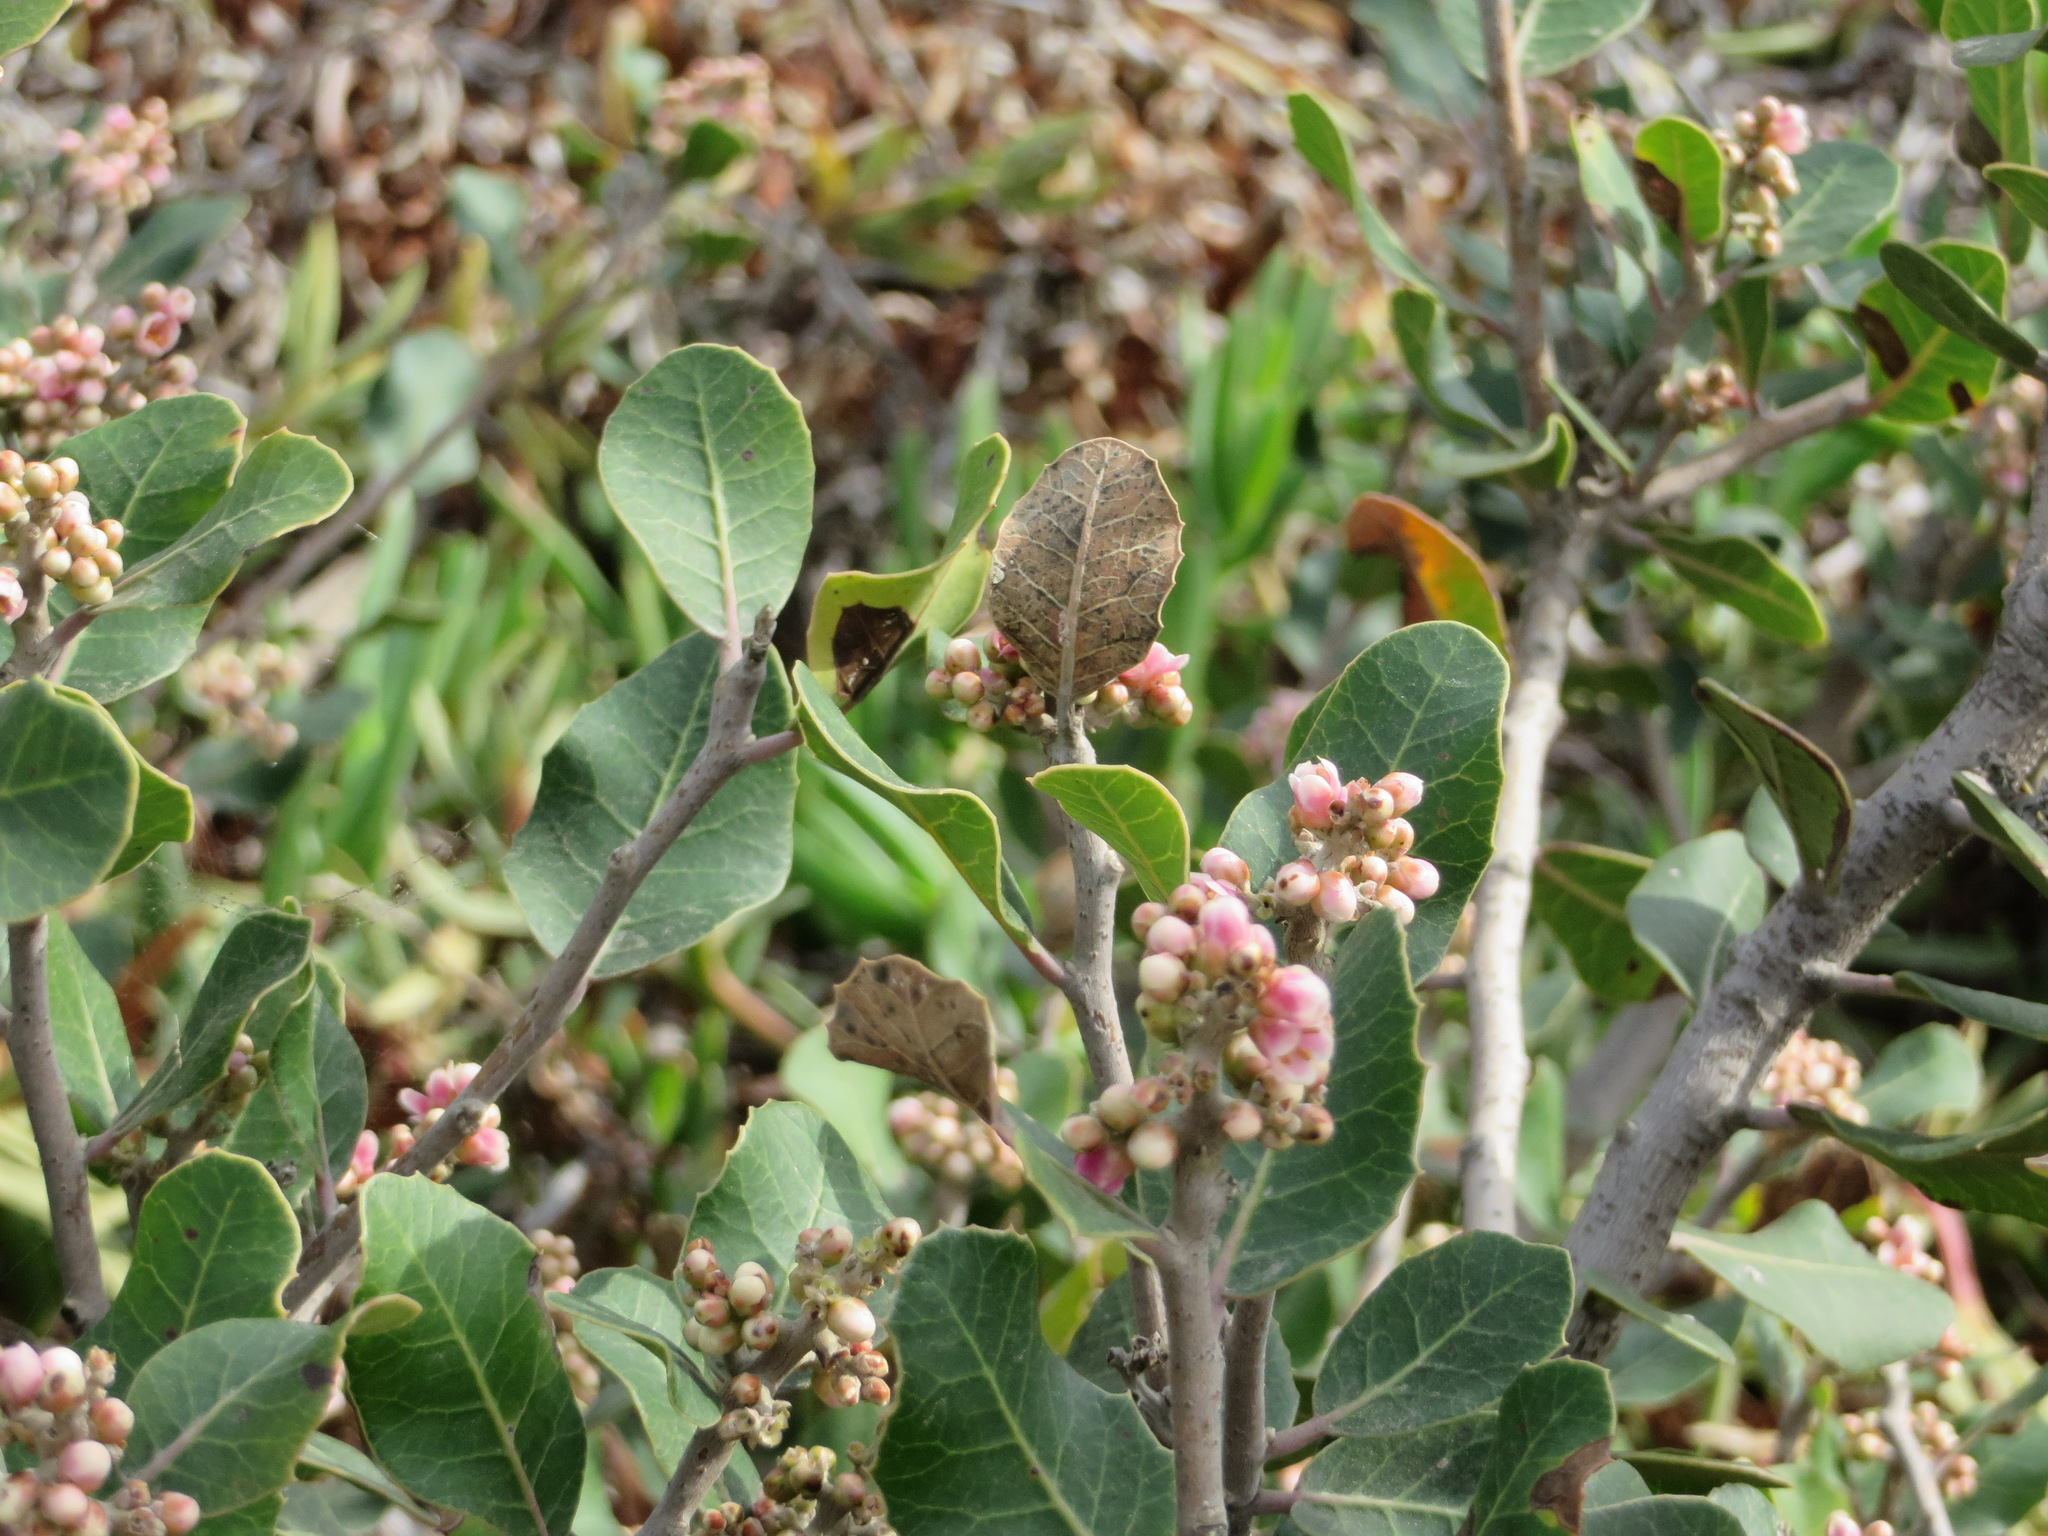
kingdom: Plantae
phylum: Tracheophyta
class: Magnoliopsida
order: Sapindales
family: Anacardiaceae
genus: Rhus
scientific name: Rhus integrifolia
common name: Lemonade sumac
